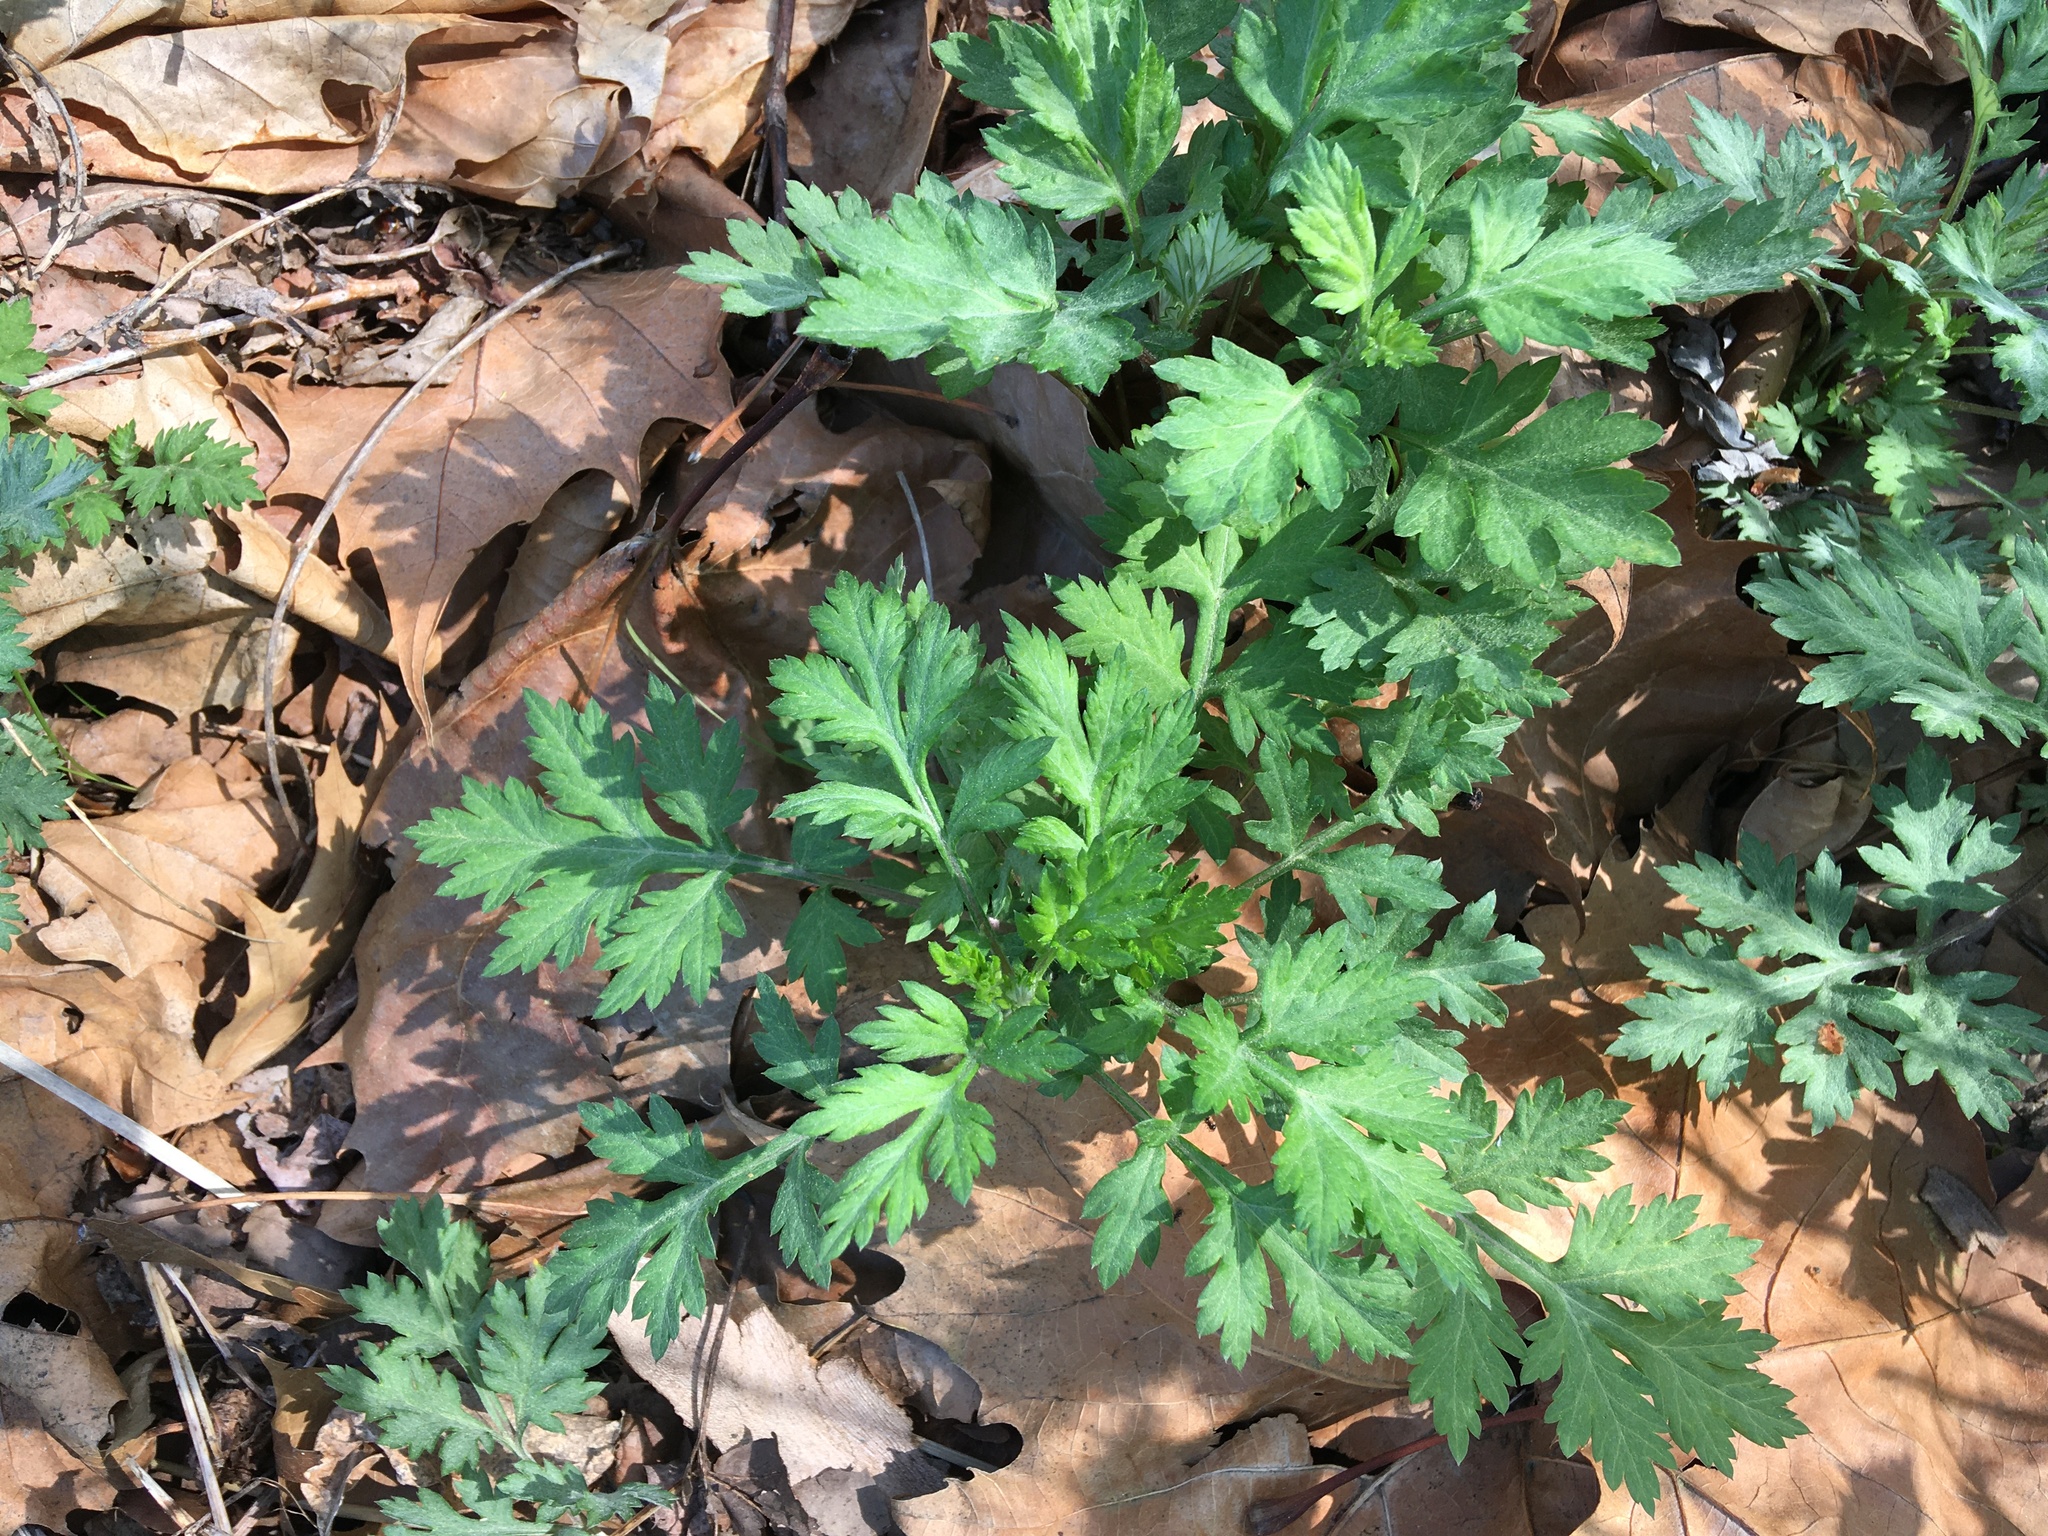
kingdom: Plantae
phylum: Tracheophyta
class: Magnoliopsida
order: Asterales
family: Asteraceae
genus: Artemisia
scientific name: Artemisia vulgaris
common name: Mugwort
